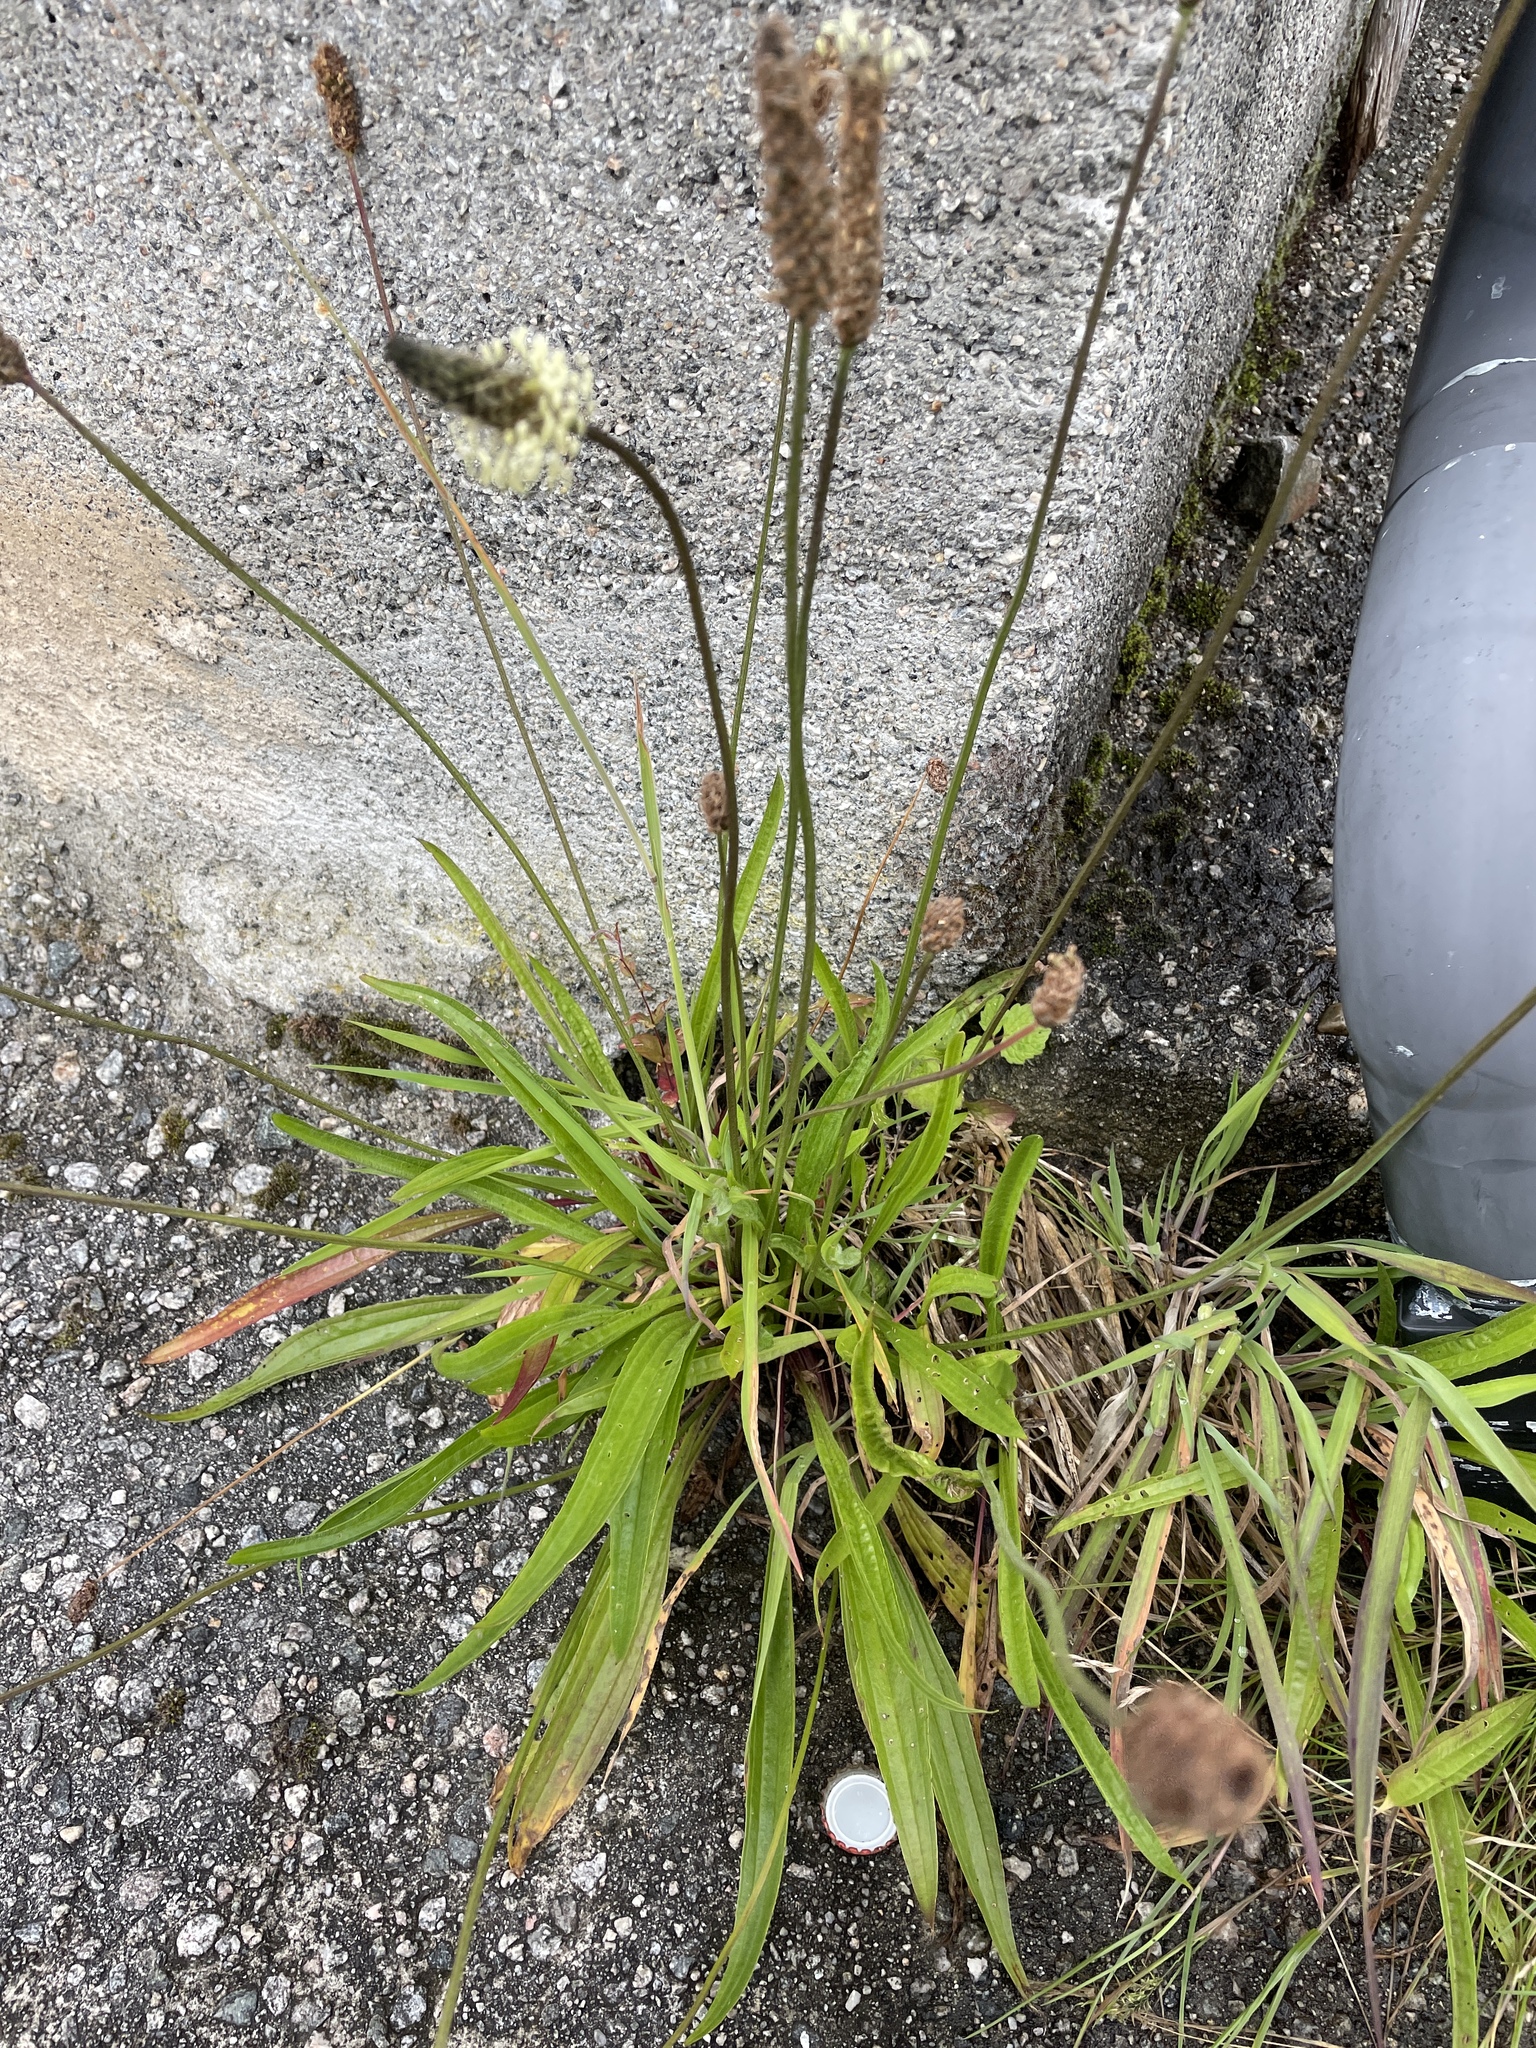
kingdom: Plantae
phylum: Tracheophyta
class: Magnoliopsida
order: Lamiales
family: Plantaginaceae
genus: Plantago
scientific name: Plantago lanceolata
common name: Ribwort plantain
